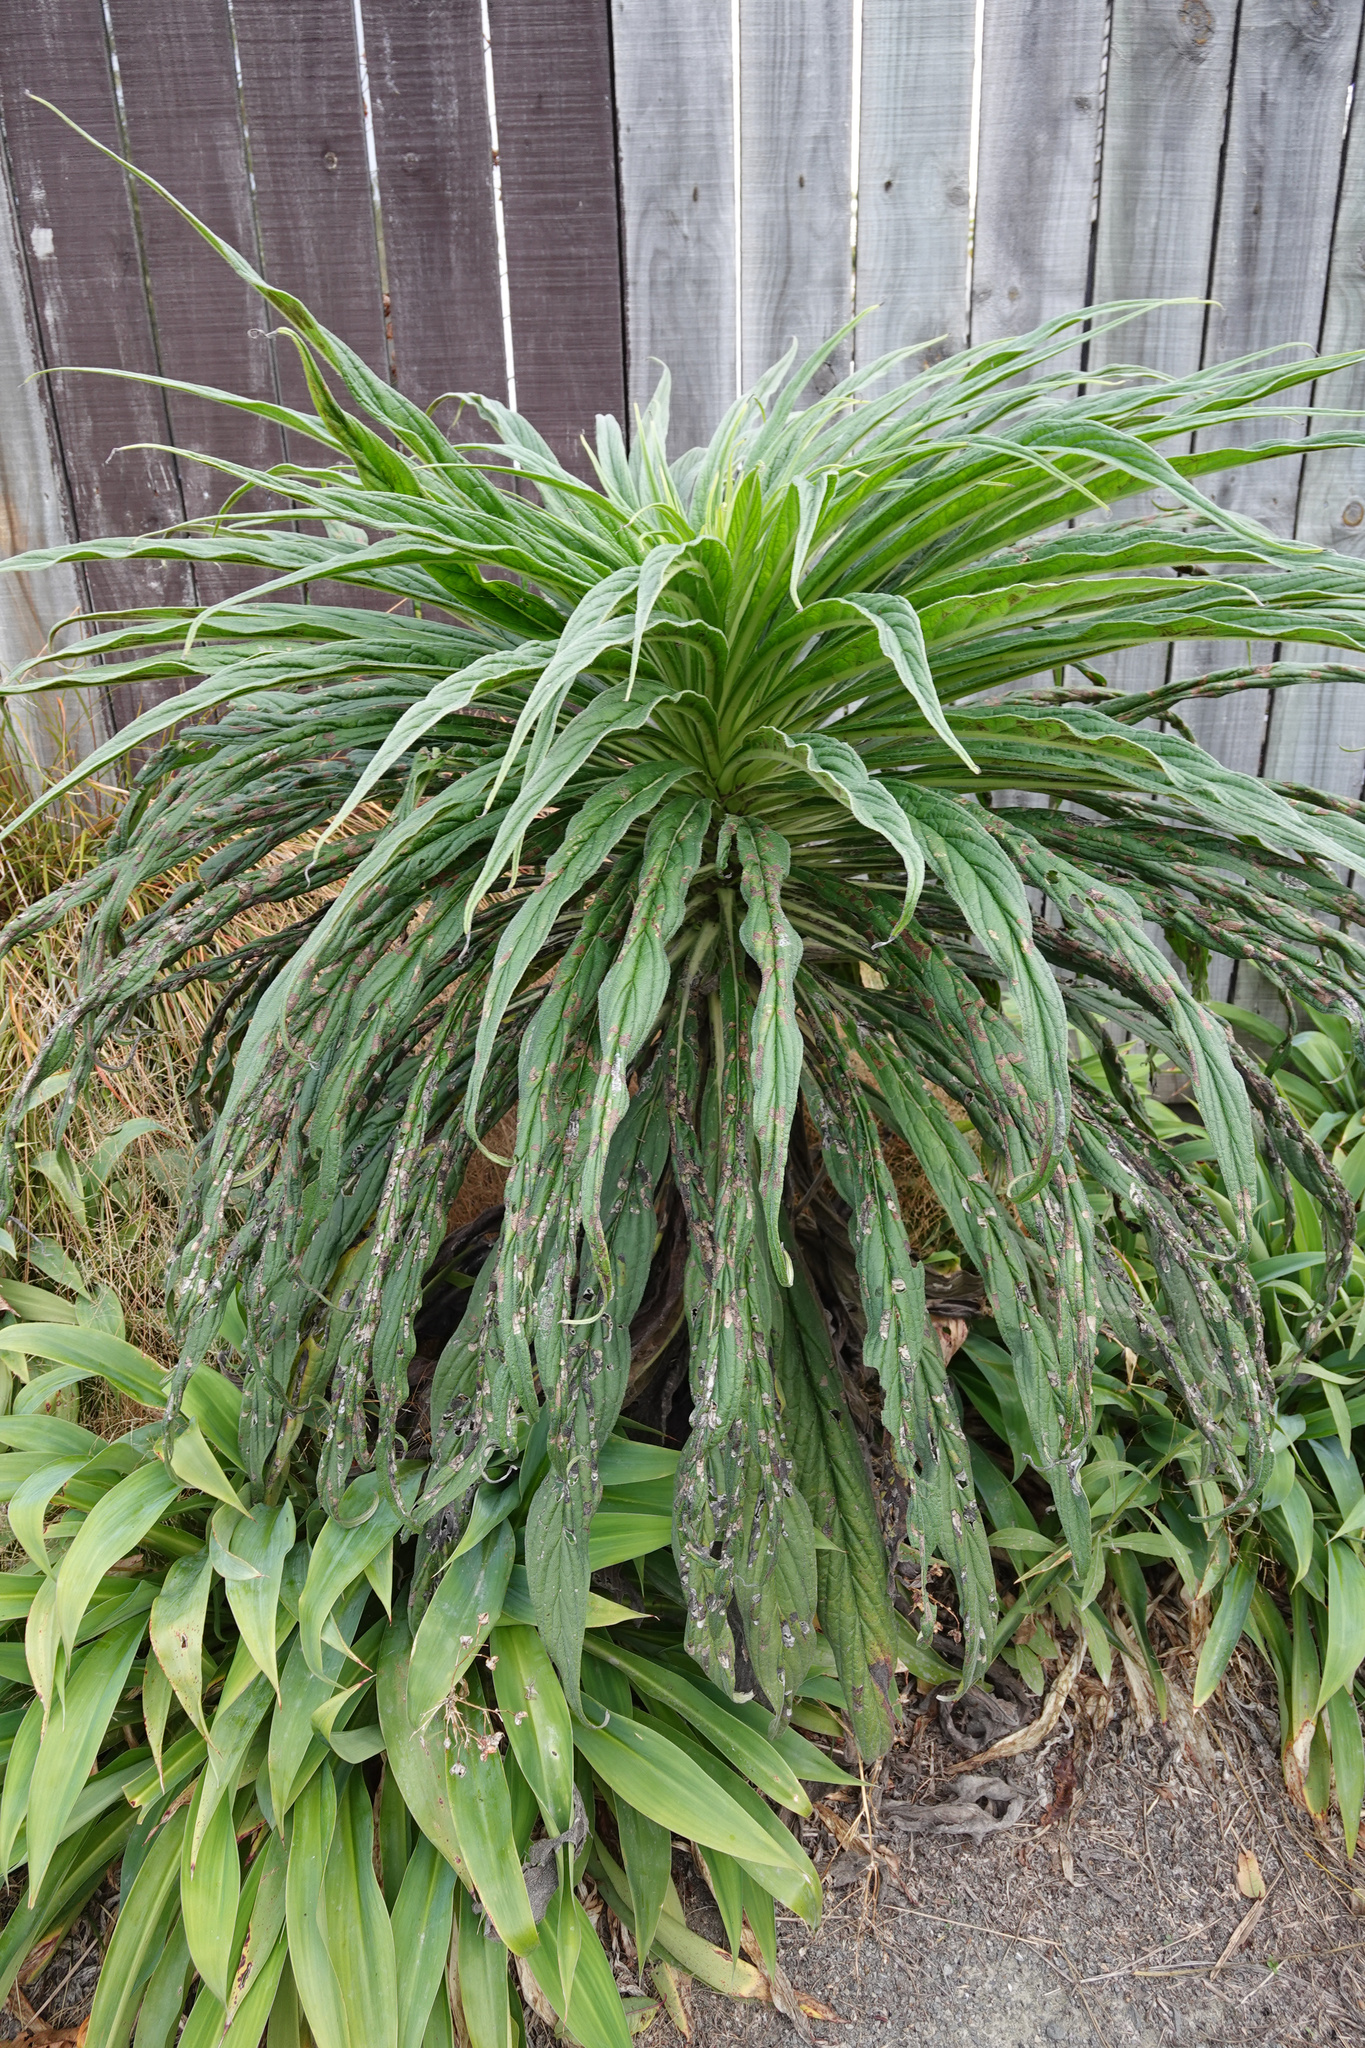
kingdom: Plantae
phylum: Tracheophyta
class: Magnoliopsida
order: Boraginales
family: Boraginaceae
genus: Echium
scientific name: Echium pininana
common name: Giant viper's-bugloss
